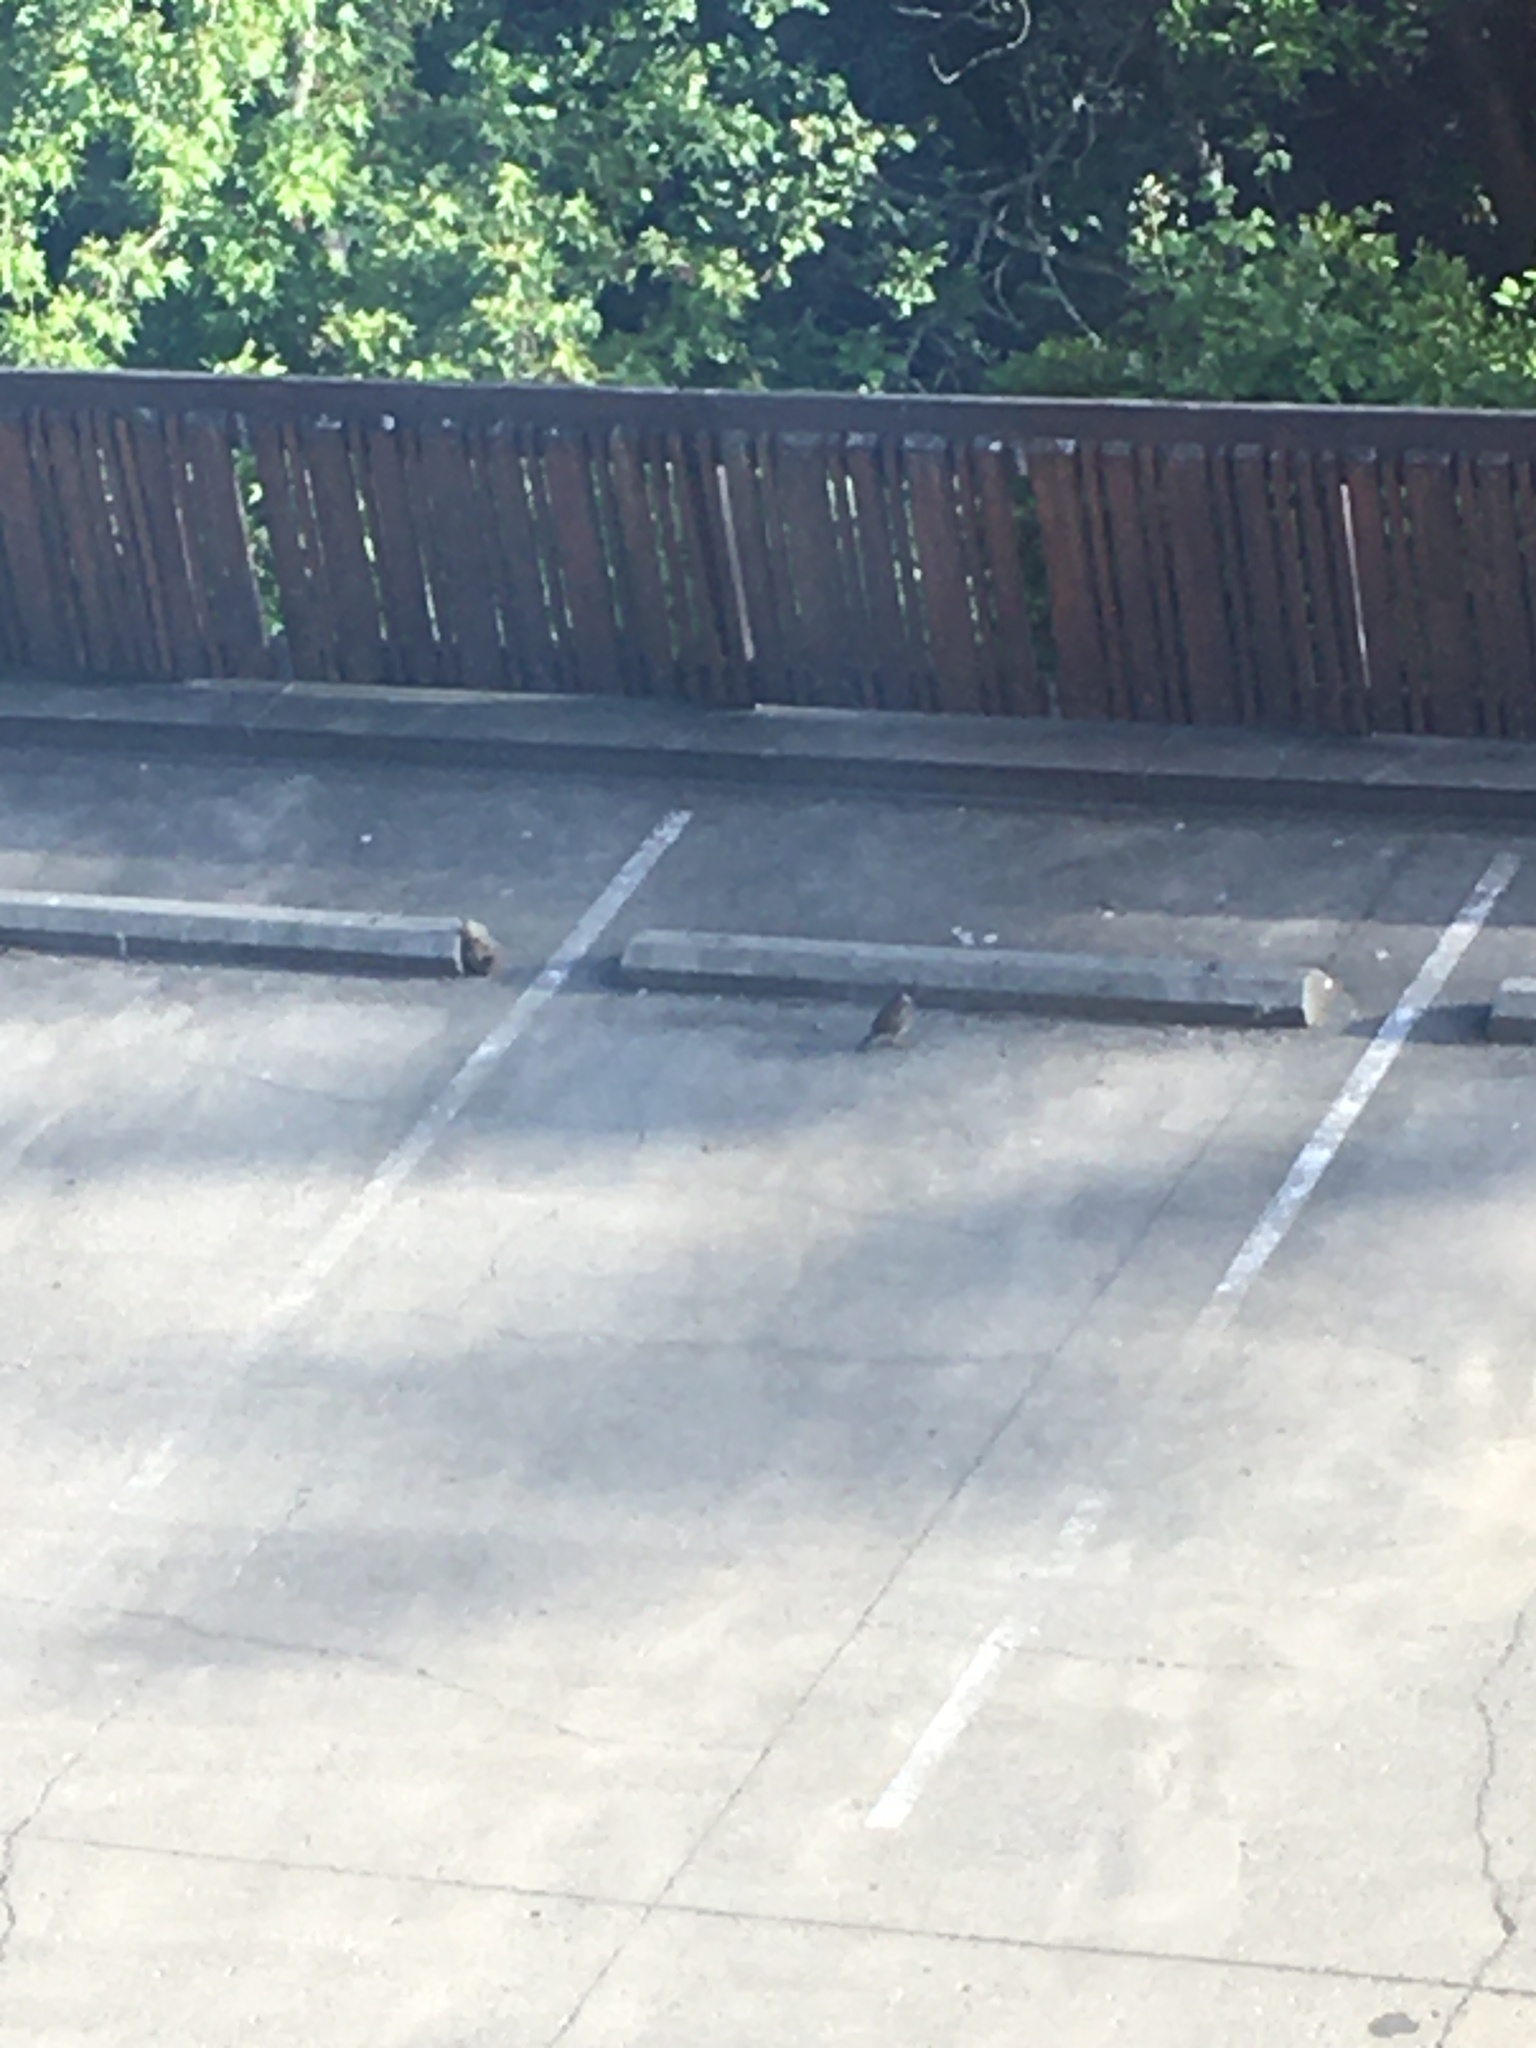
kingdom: Animalia
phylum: Chordata
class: Aves
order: Galliformes
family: Odontophoridae
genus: Callipepla
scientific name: Callipepla californica
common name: California quail
